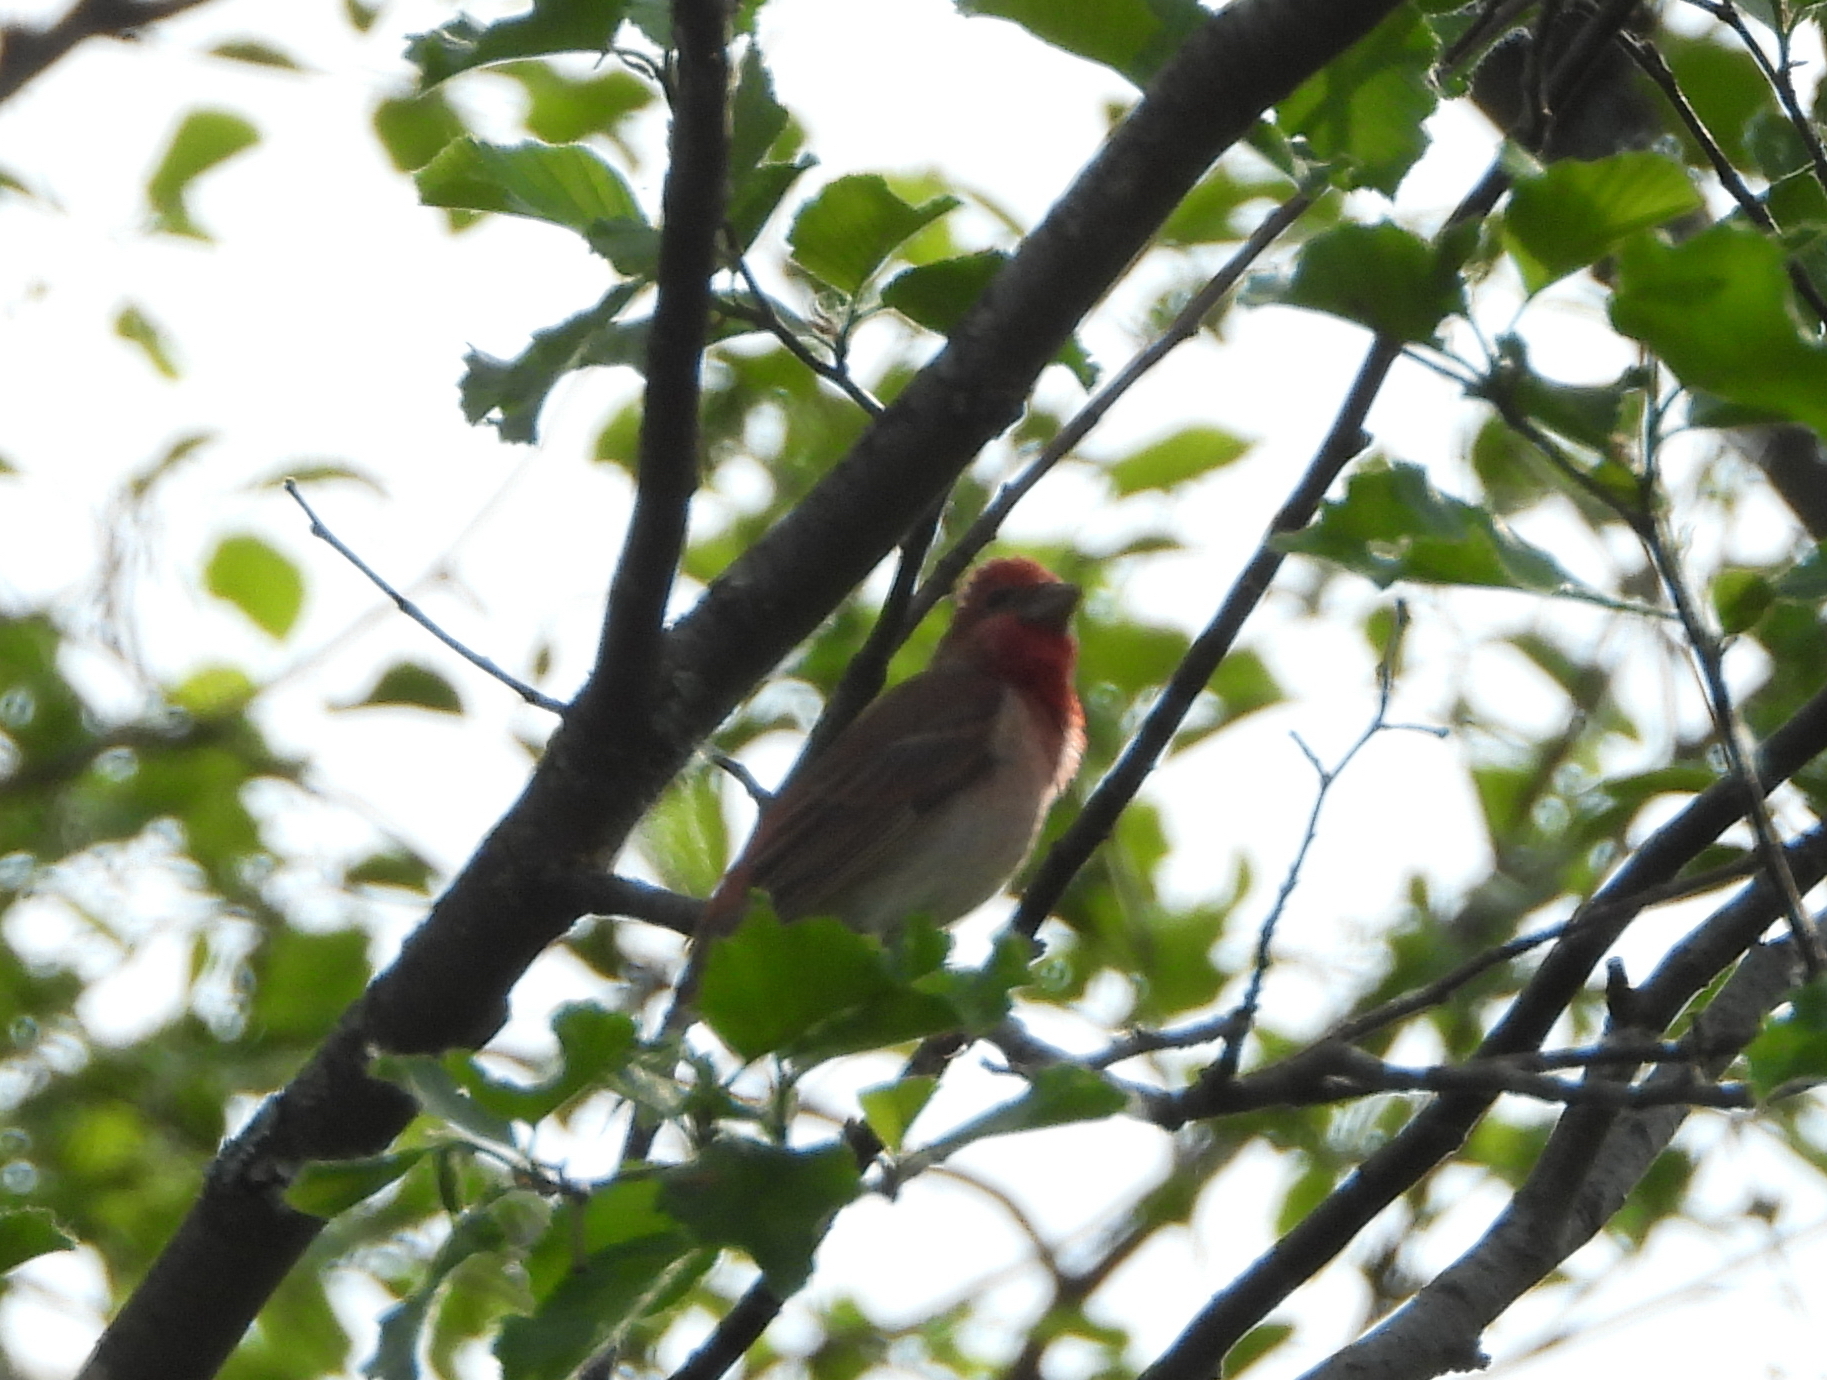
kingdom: Animalia
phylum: Chordata
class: Aves
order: Passeriformes
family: Fringillidae
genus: Carpodacus
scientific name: Carpodacus erythrinus
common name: Common rosefinch
